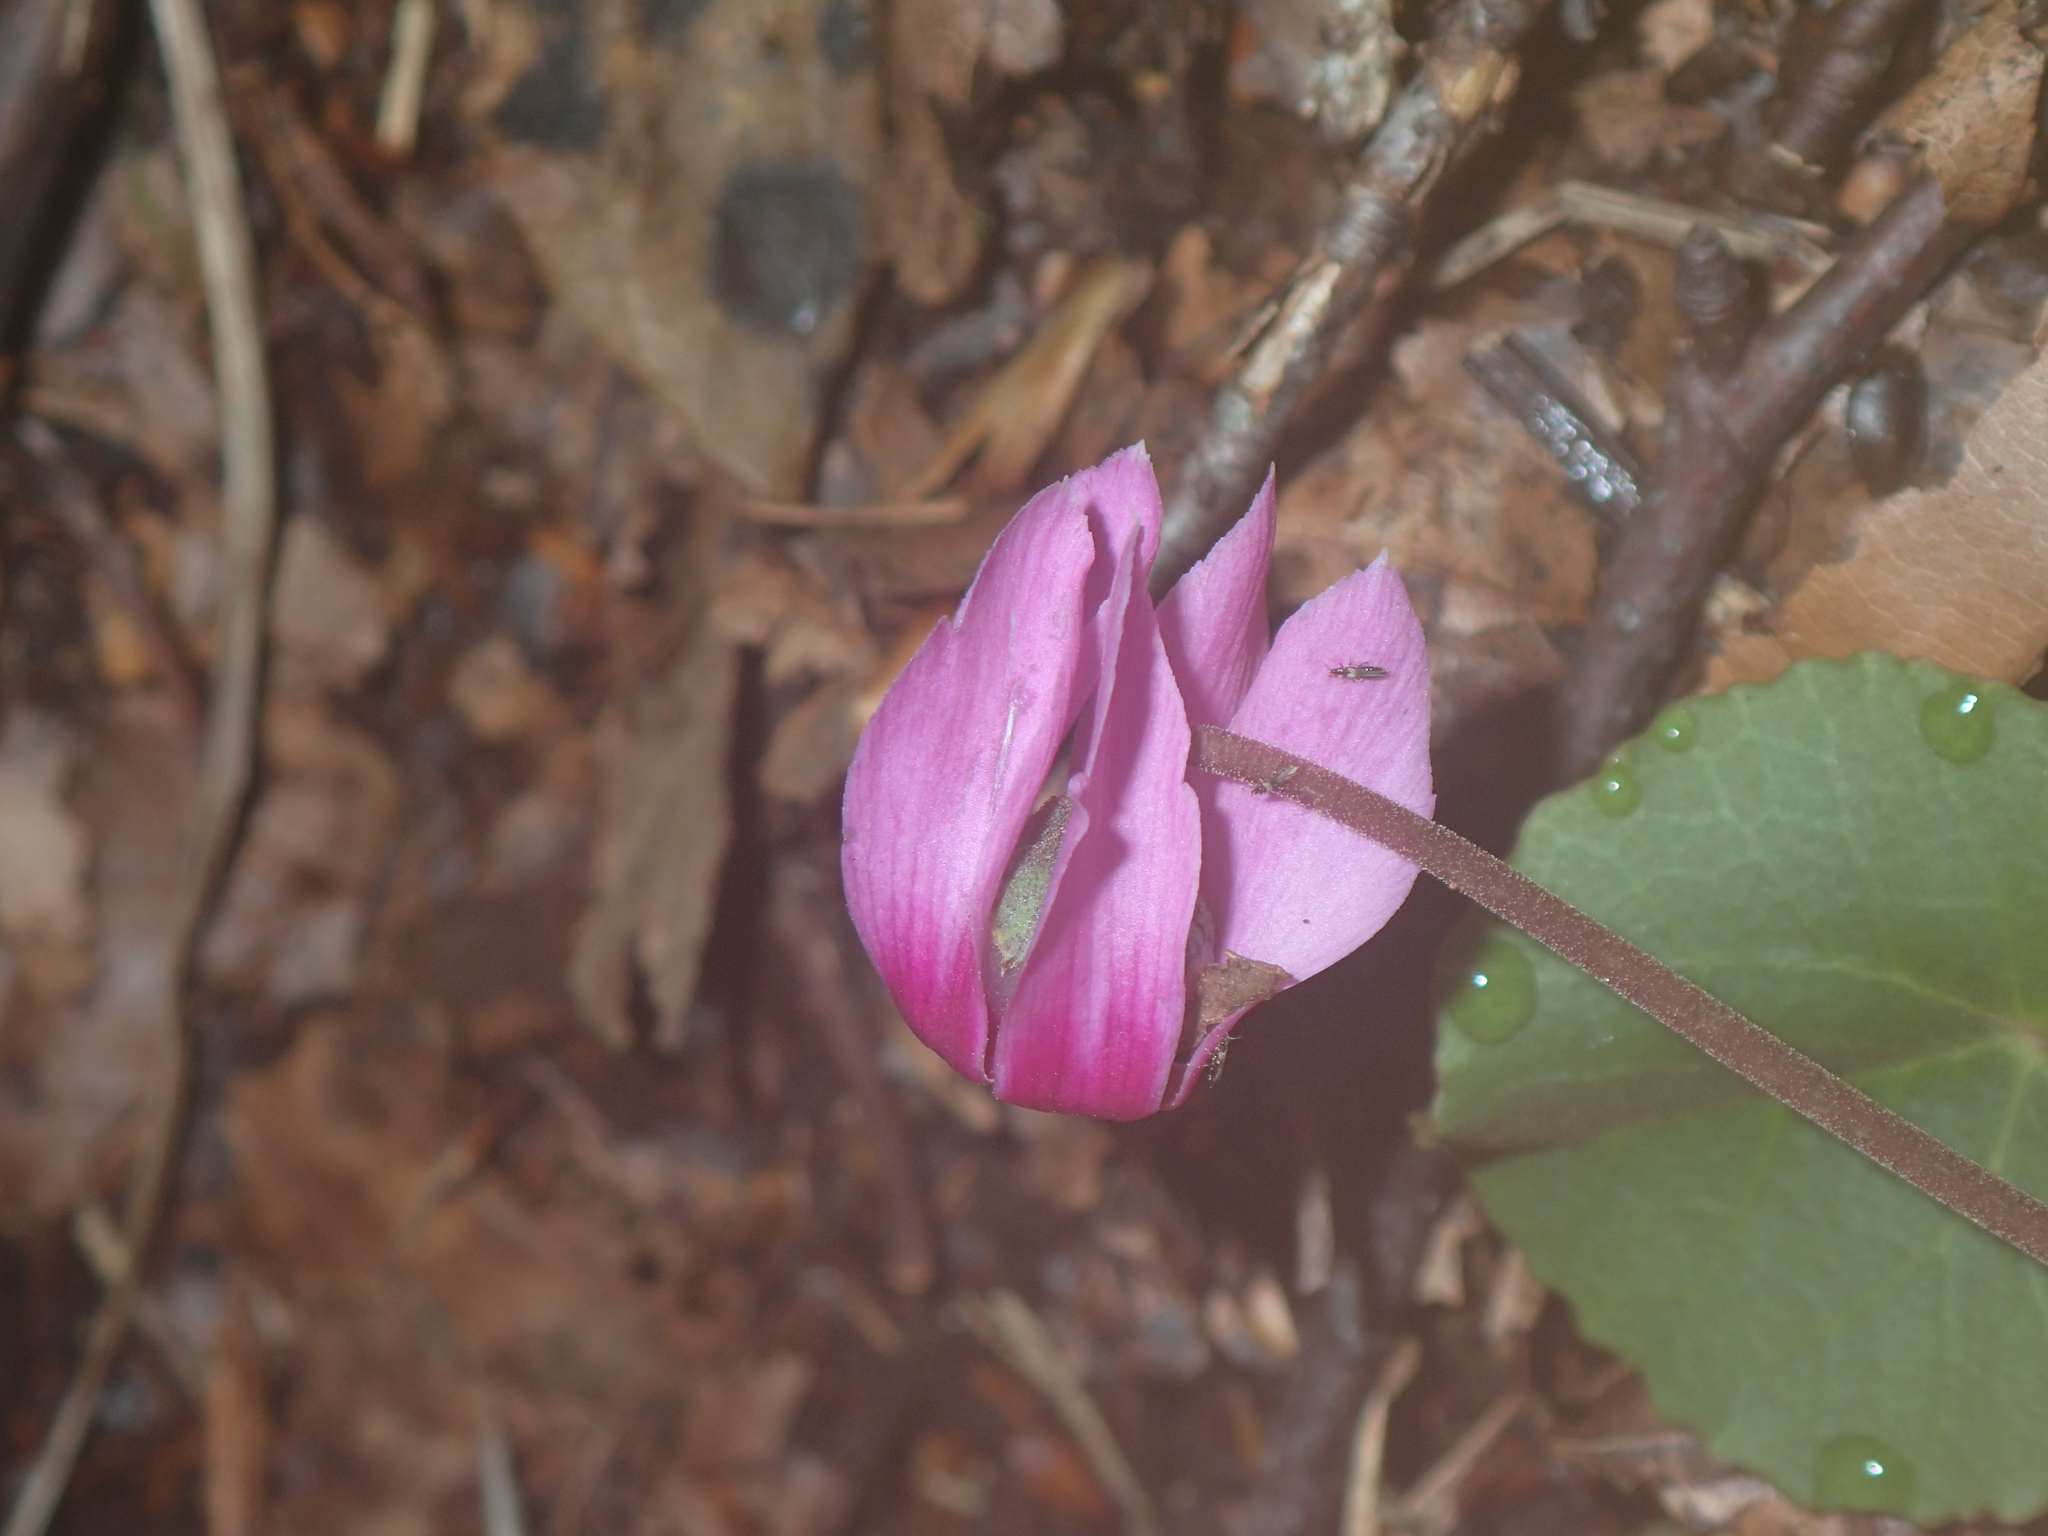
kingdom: Plantae
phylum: Tracheophyta
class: Magnoliopsida
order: Ericales
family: Primulaceae
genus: Cyclamen
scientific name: Cyclamen purpurascens
